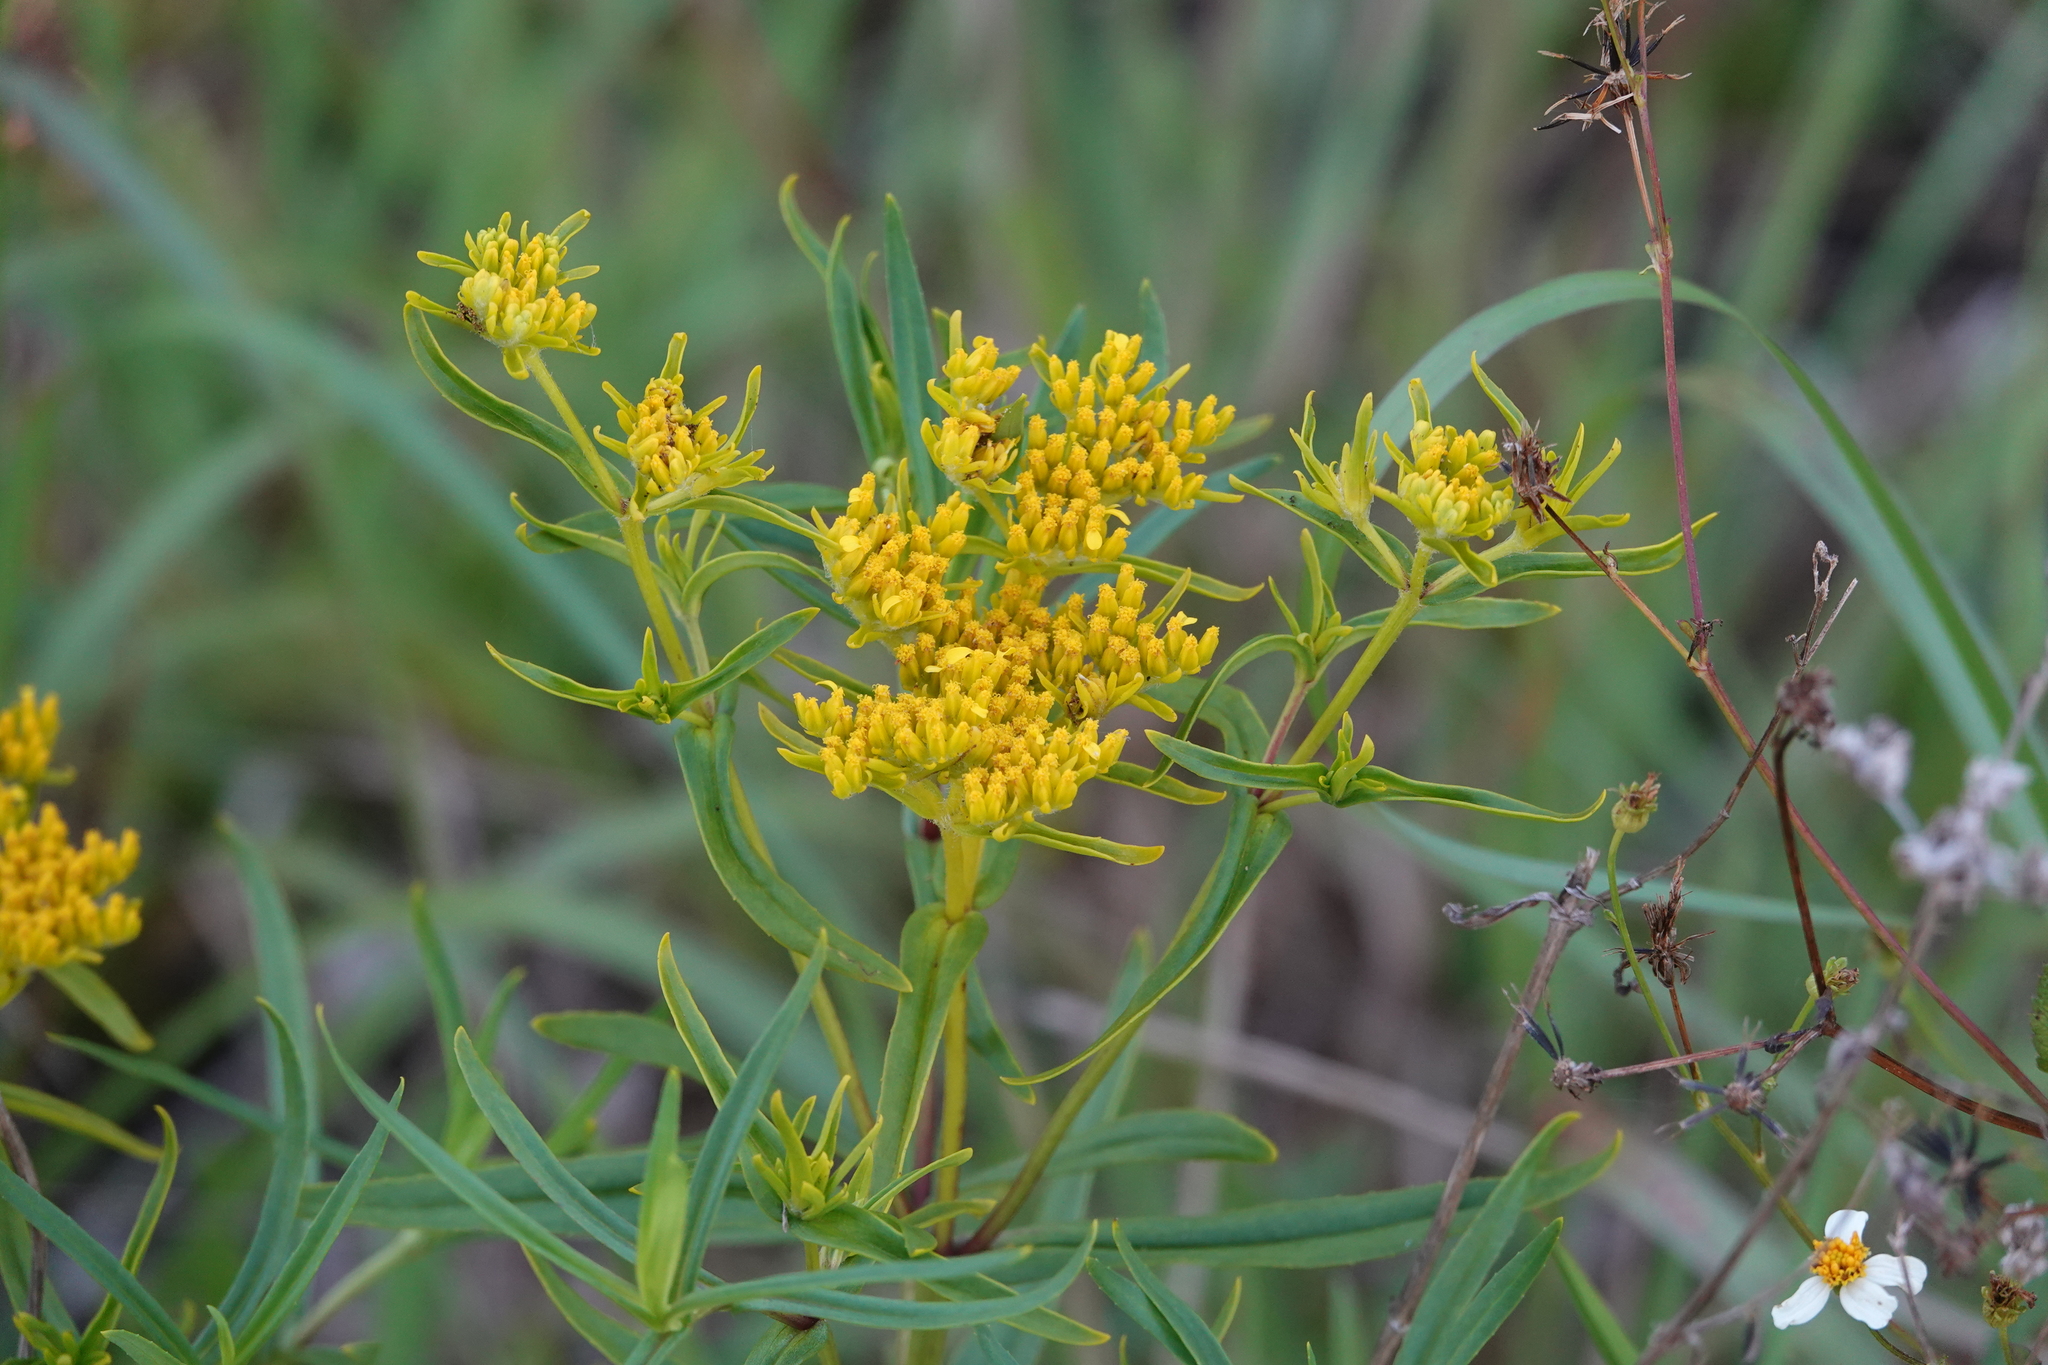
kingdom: Plantae
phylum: Tracheophyta
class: Magnoliopsida
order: Asterales
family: Asteraceae
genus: Flaveria
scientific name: Flaveria linearis
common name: Yellowtop
